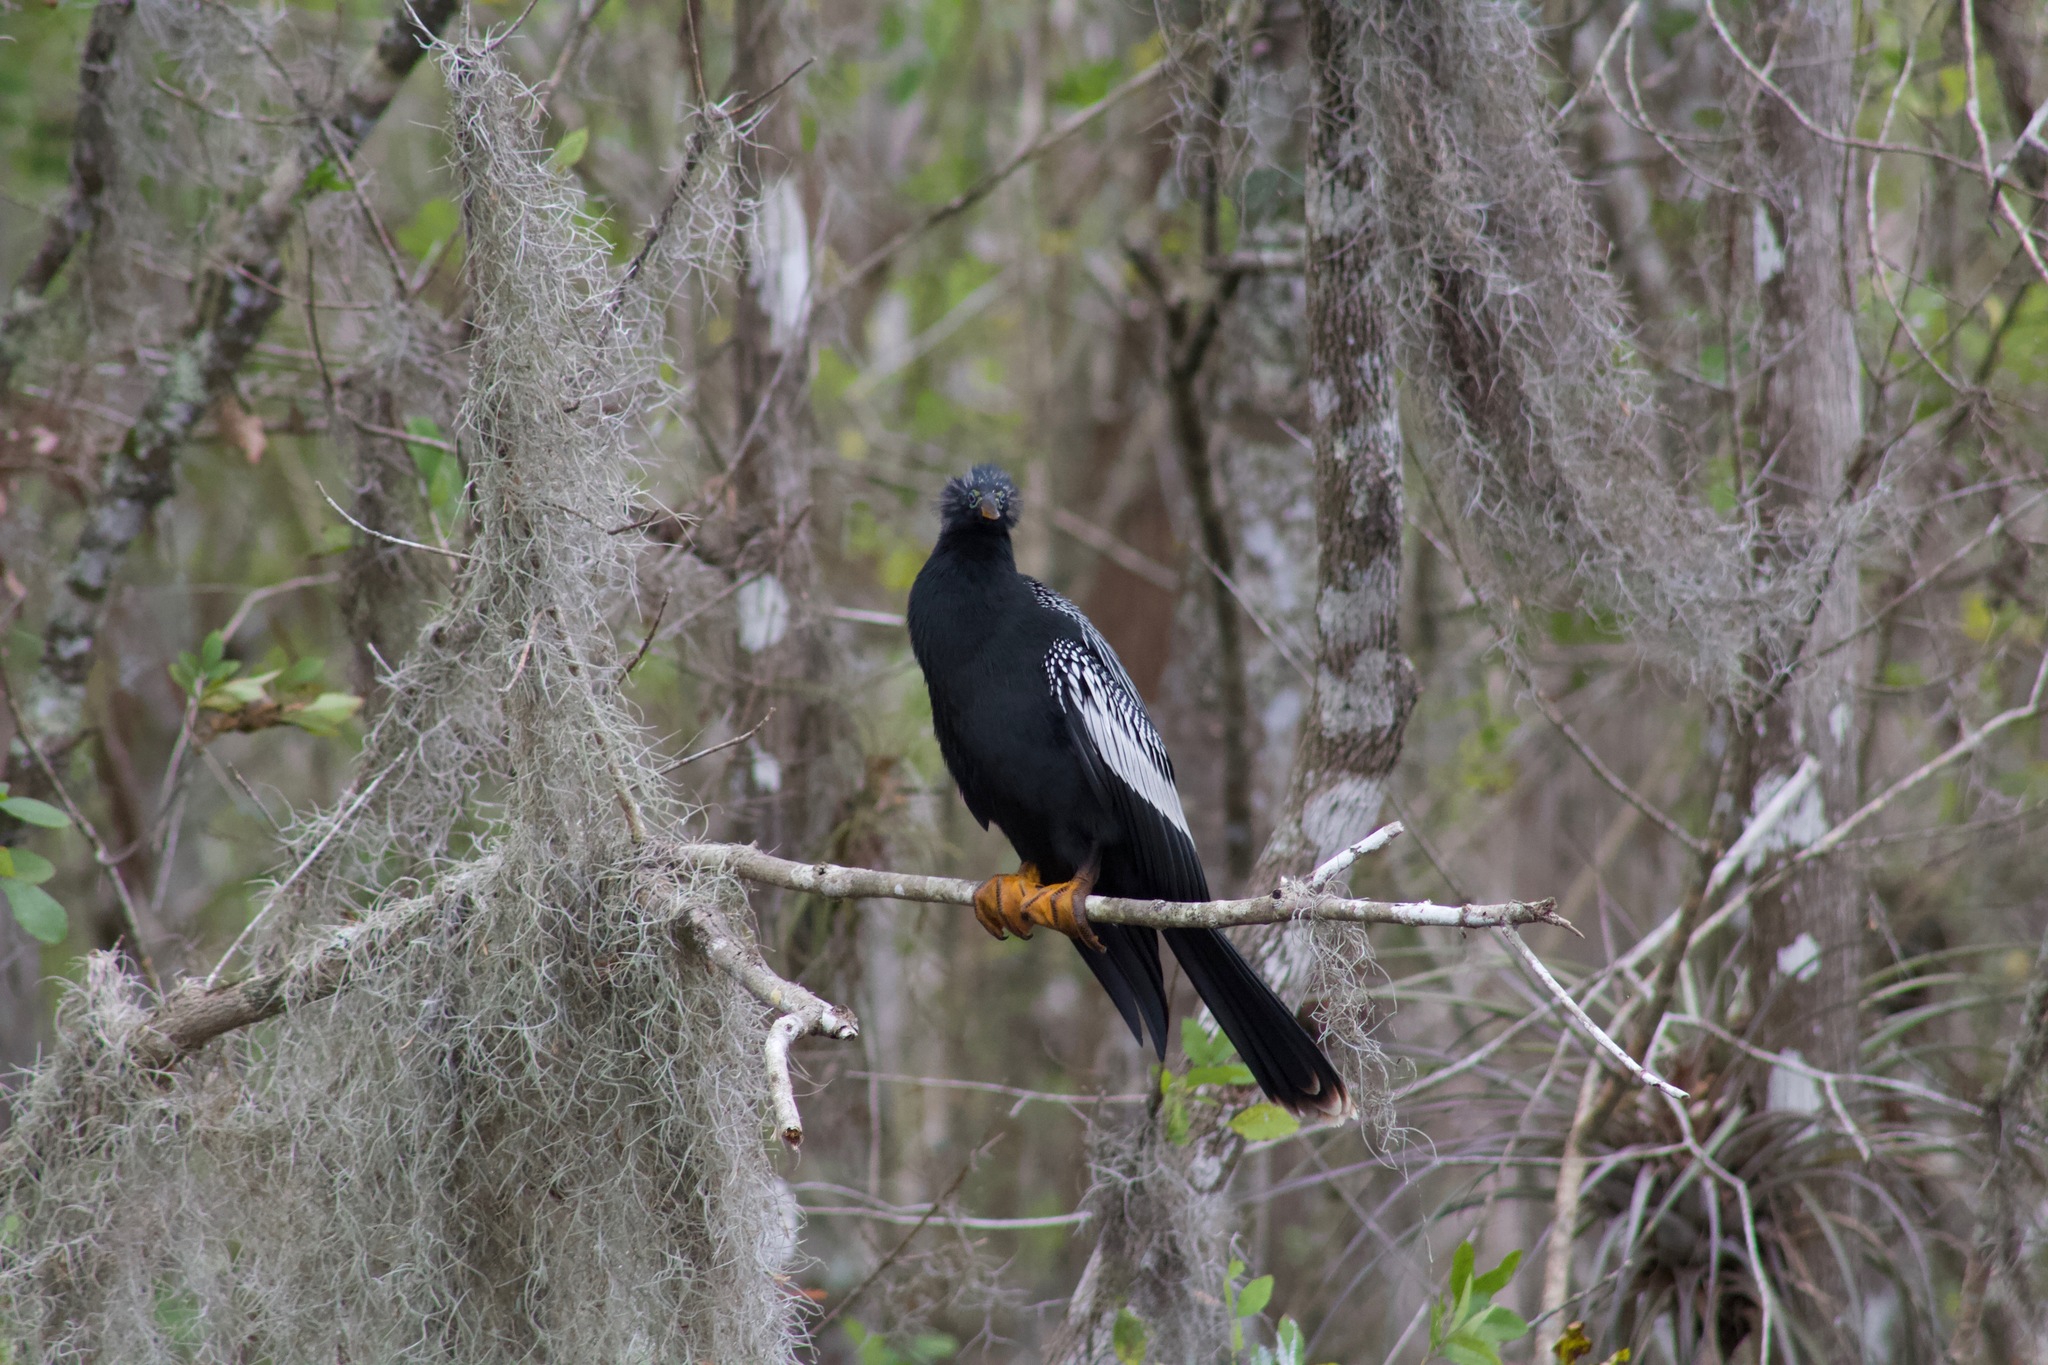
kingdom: Animalia
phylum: Chordata
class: Aves
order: Suliformes
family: Anhingidae
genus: Anhinga
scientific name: Anhinga anhinga
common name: Anhinga
